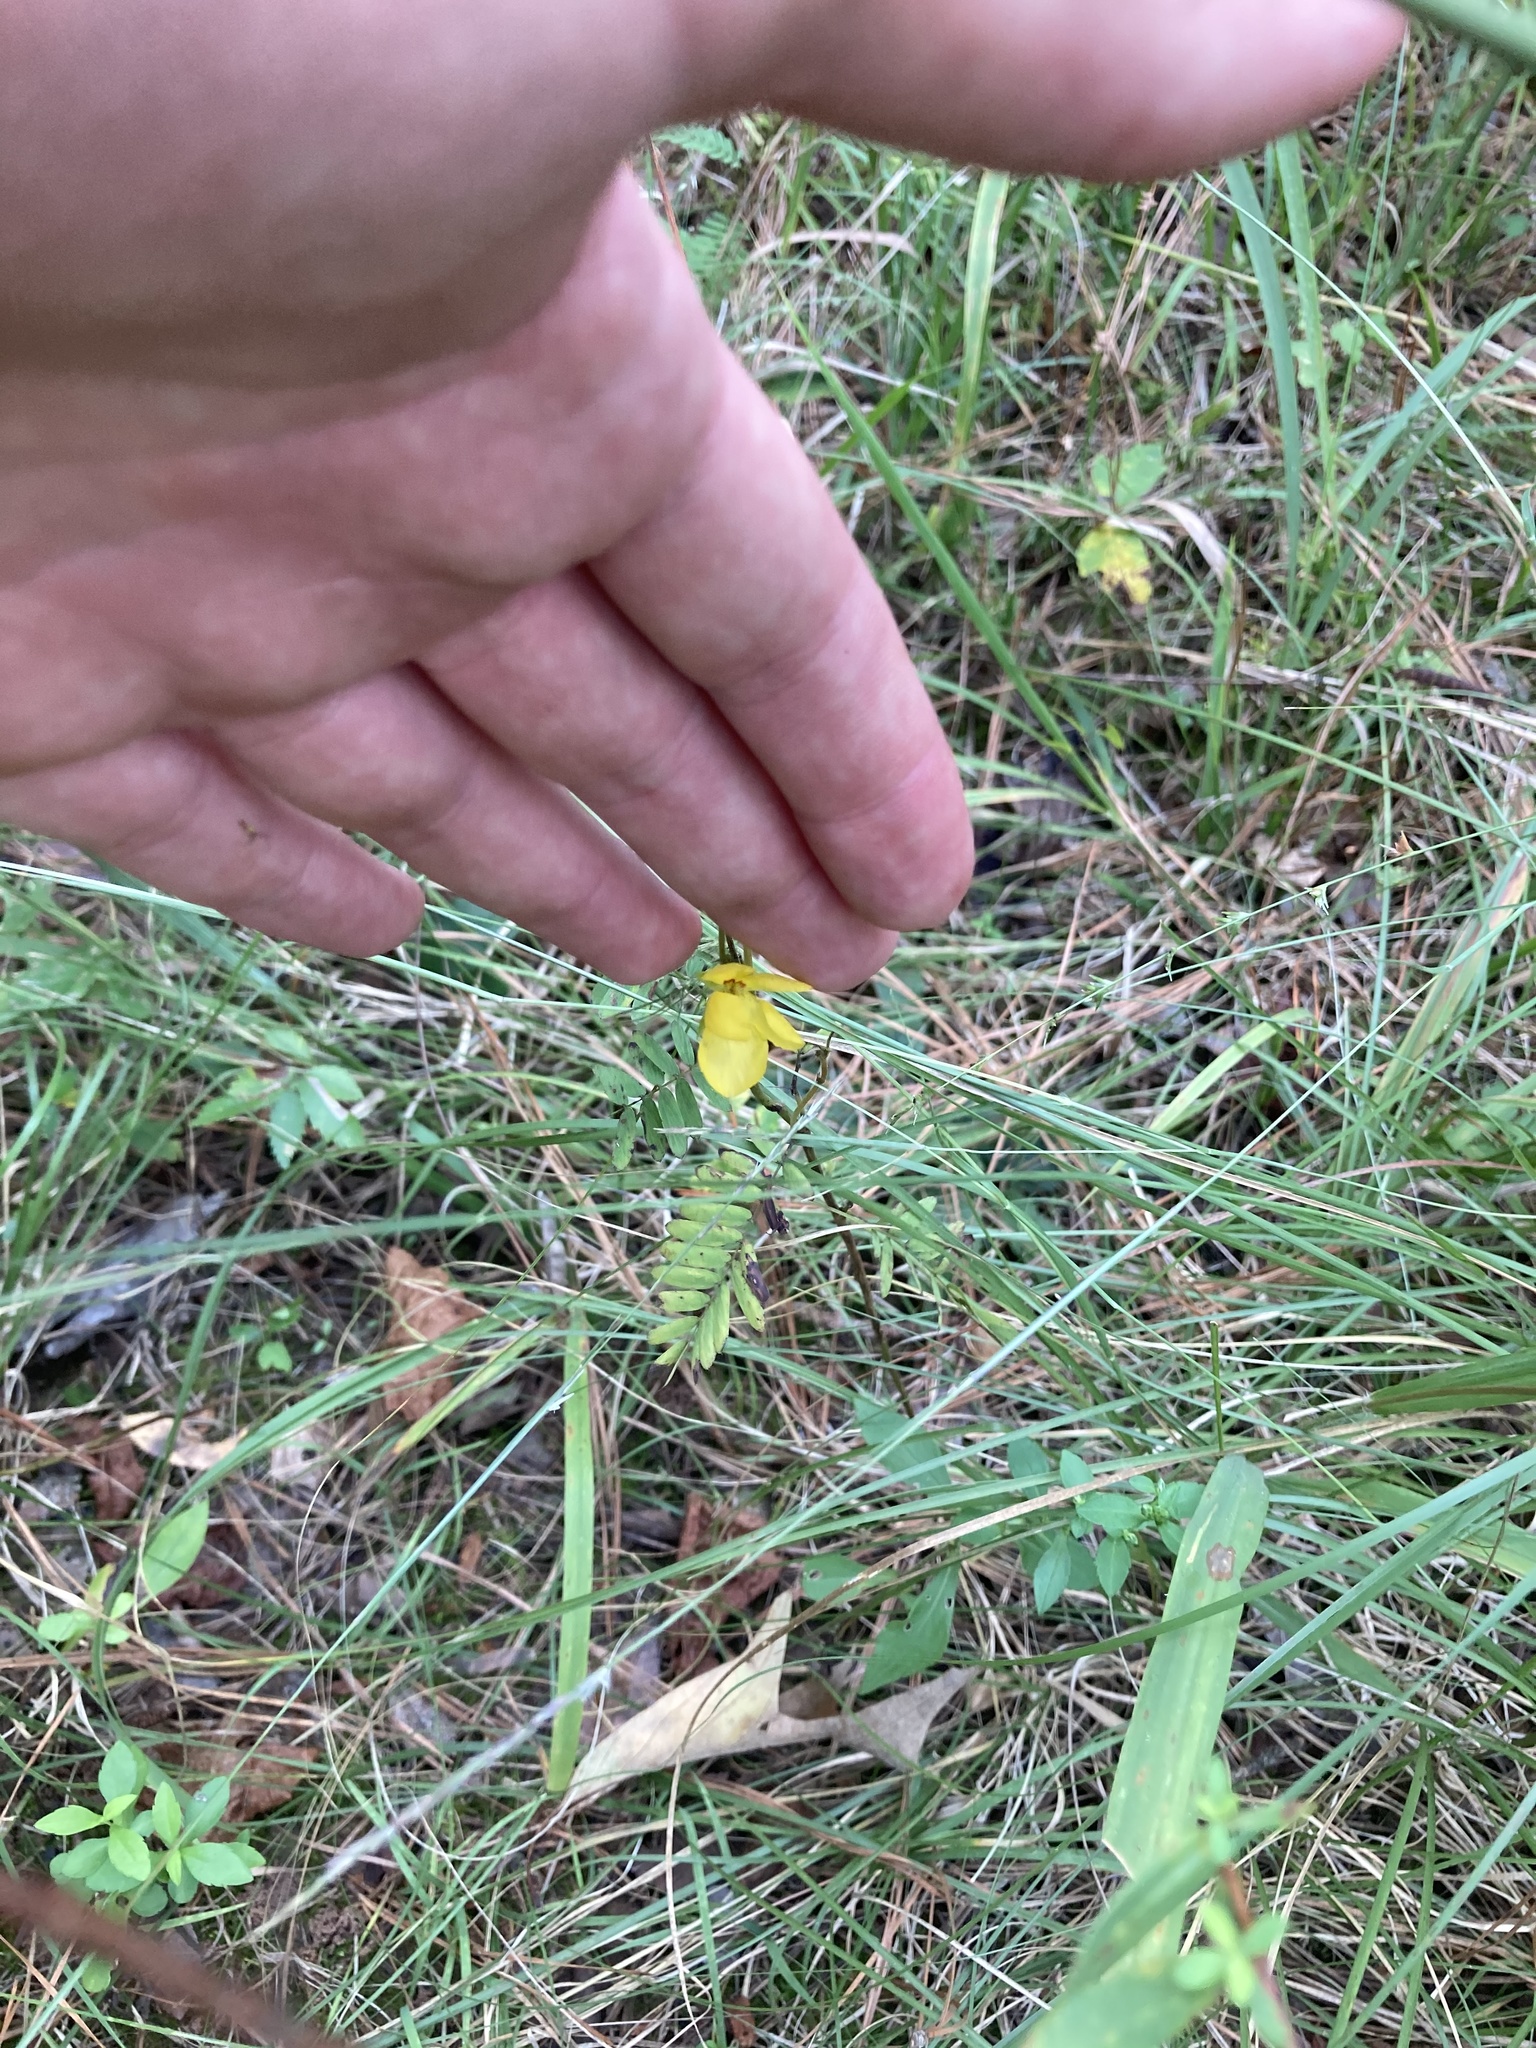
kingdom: Plantae
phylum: Tracheophyta
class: Magnoliopsida
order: Fabales
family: Fabaceae
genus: Chamaecrista
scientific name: Chamaecrista fasciculata
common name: Golden cassia
